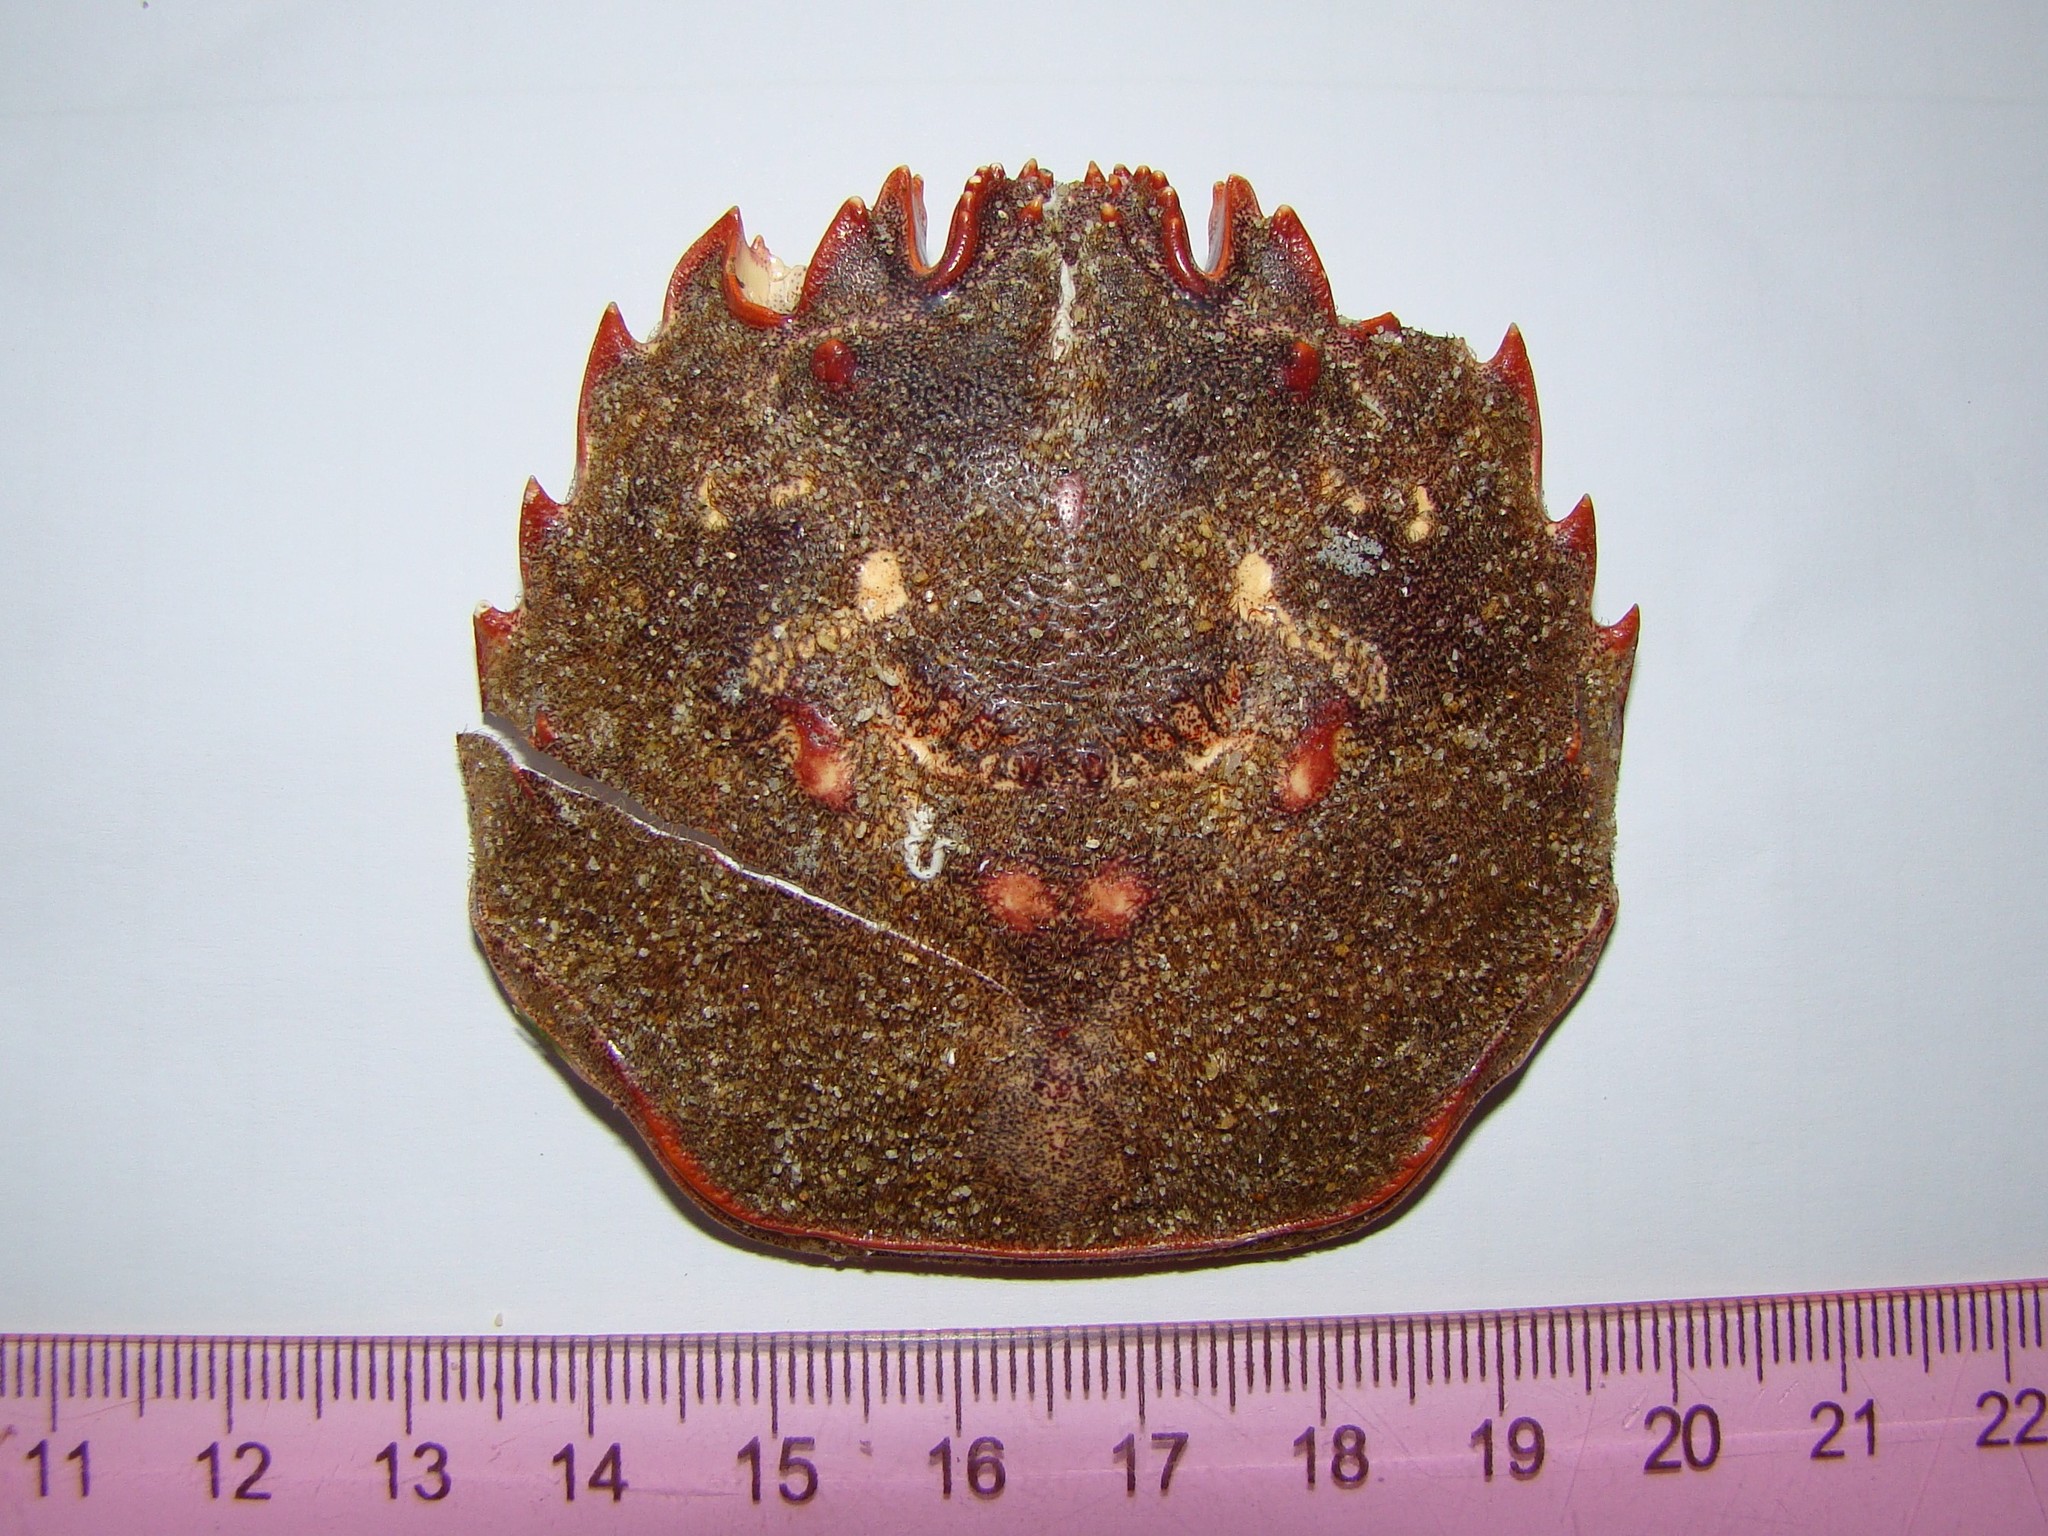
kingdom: Animalia
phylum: Arthropoda
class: Malacostraca
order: Decapoda
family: Plagusiidae
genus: Guinusia
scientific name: Guinusia chabrus
